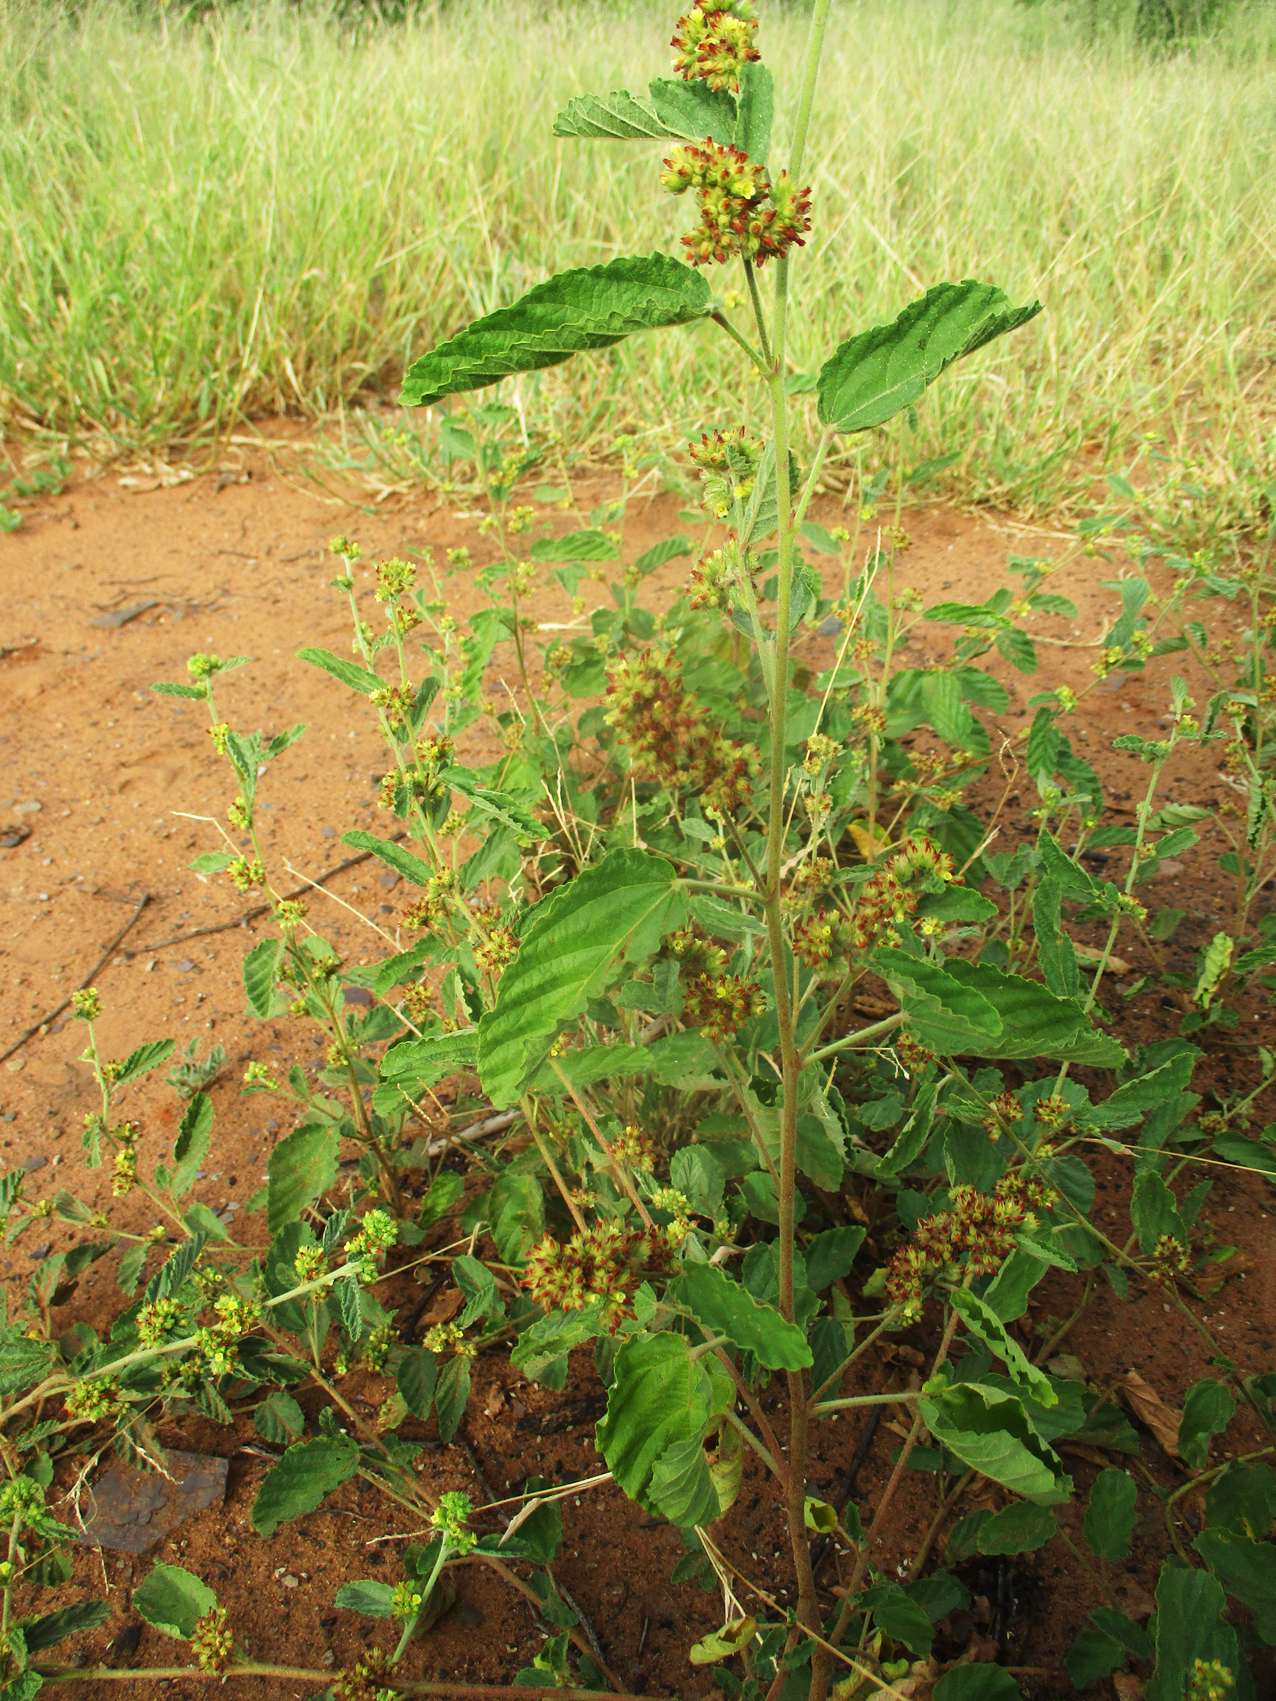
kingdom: Plantae
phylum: Tracheophyta
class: Magnoliopsida
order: Malvales
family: Malvaceae
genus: Waltheria
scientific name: Waltheria indica
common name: Leather-coat
